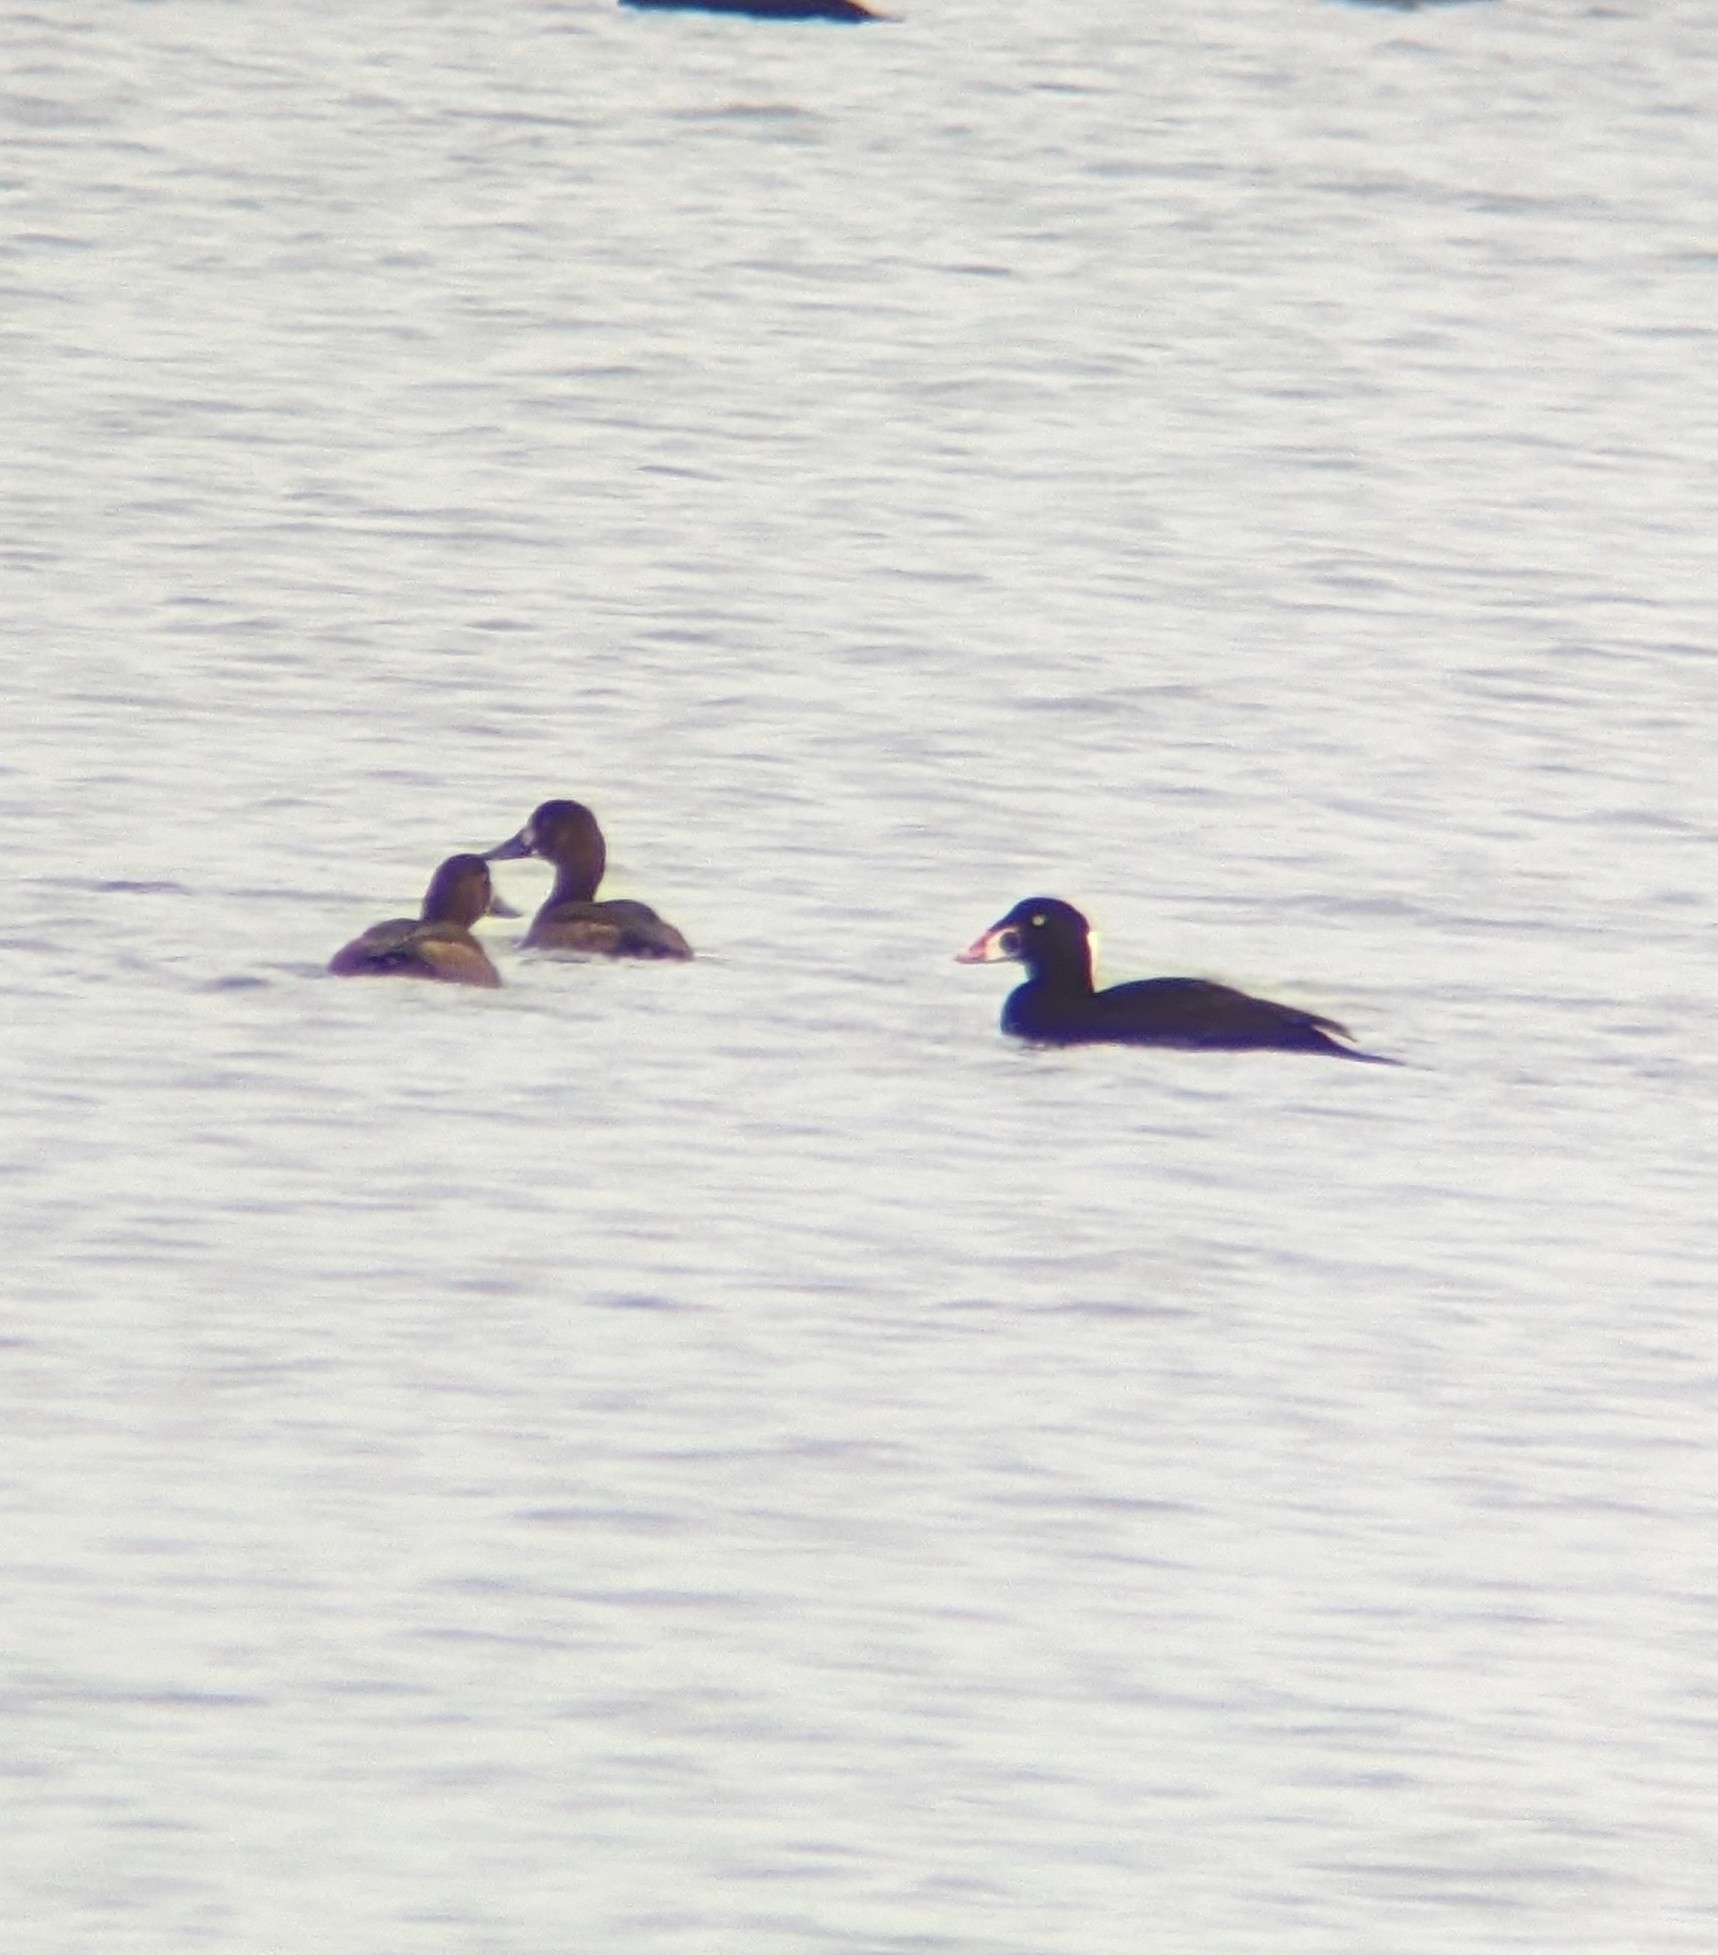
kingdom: Animalia
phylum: Chordata
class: Aves
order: Anseriformes
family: Anatidae
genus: Melanitta
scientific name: Melanitta perspicillata
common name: Surf scoter
